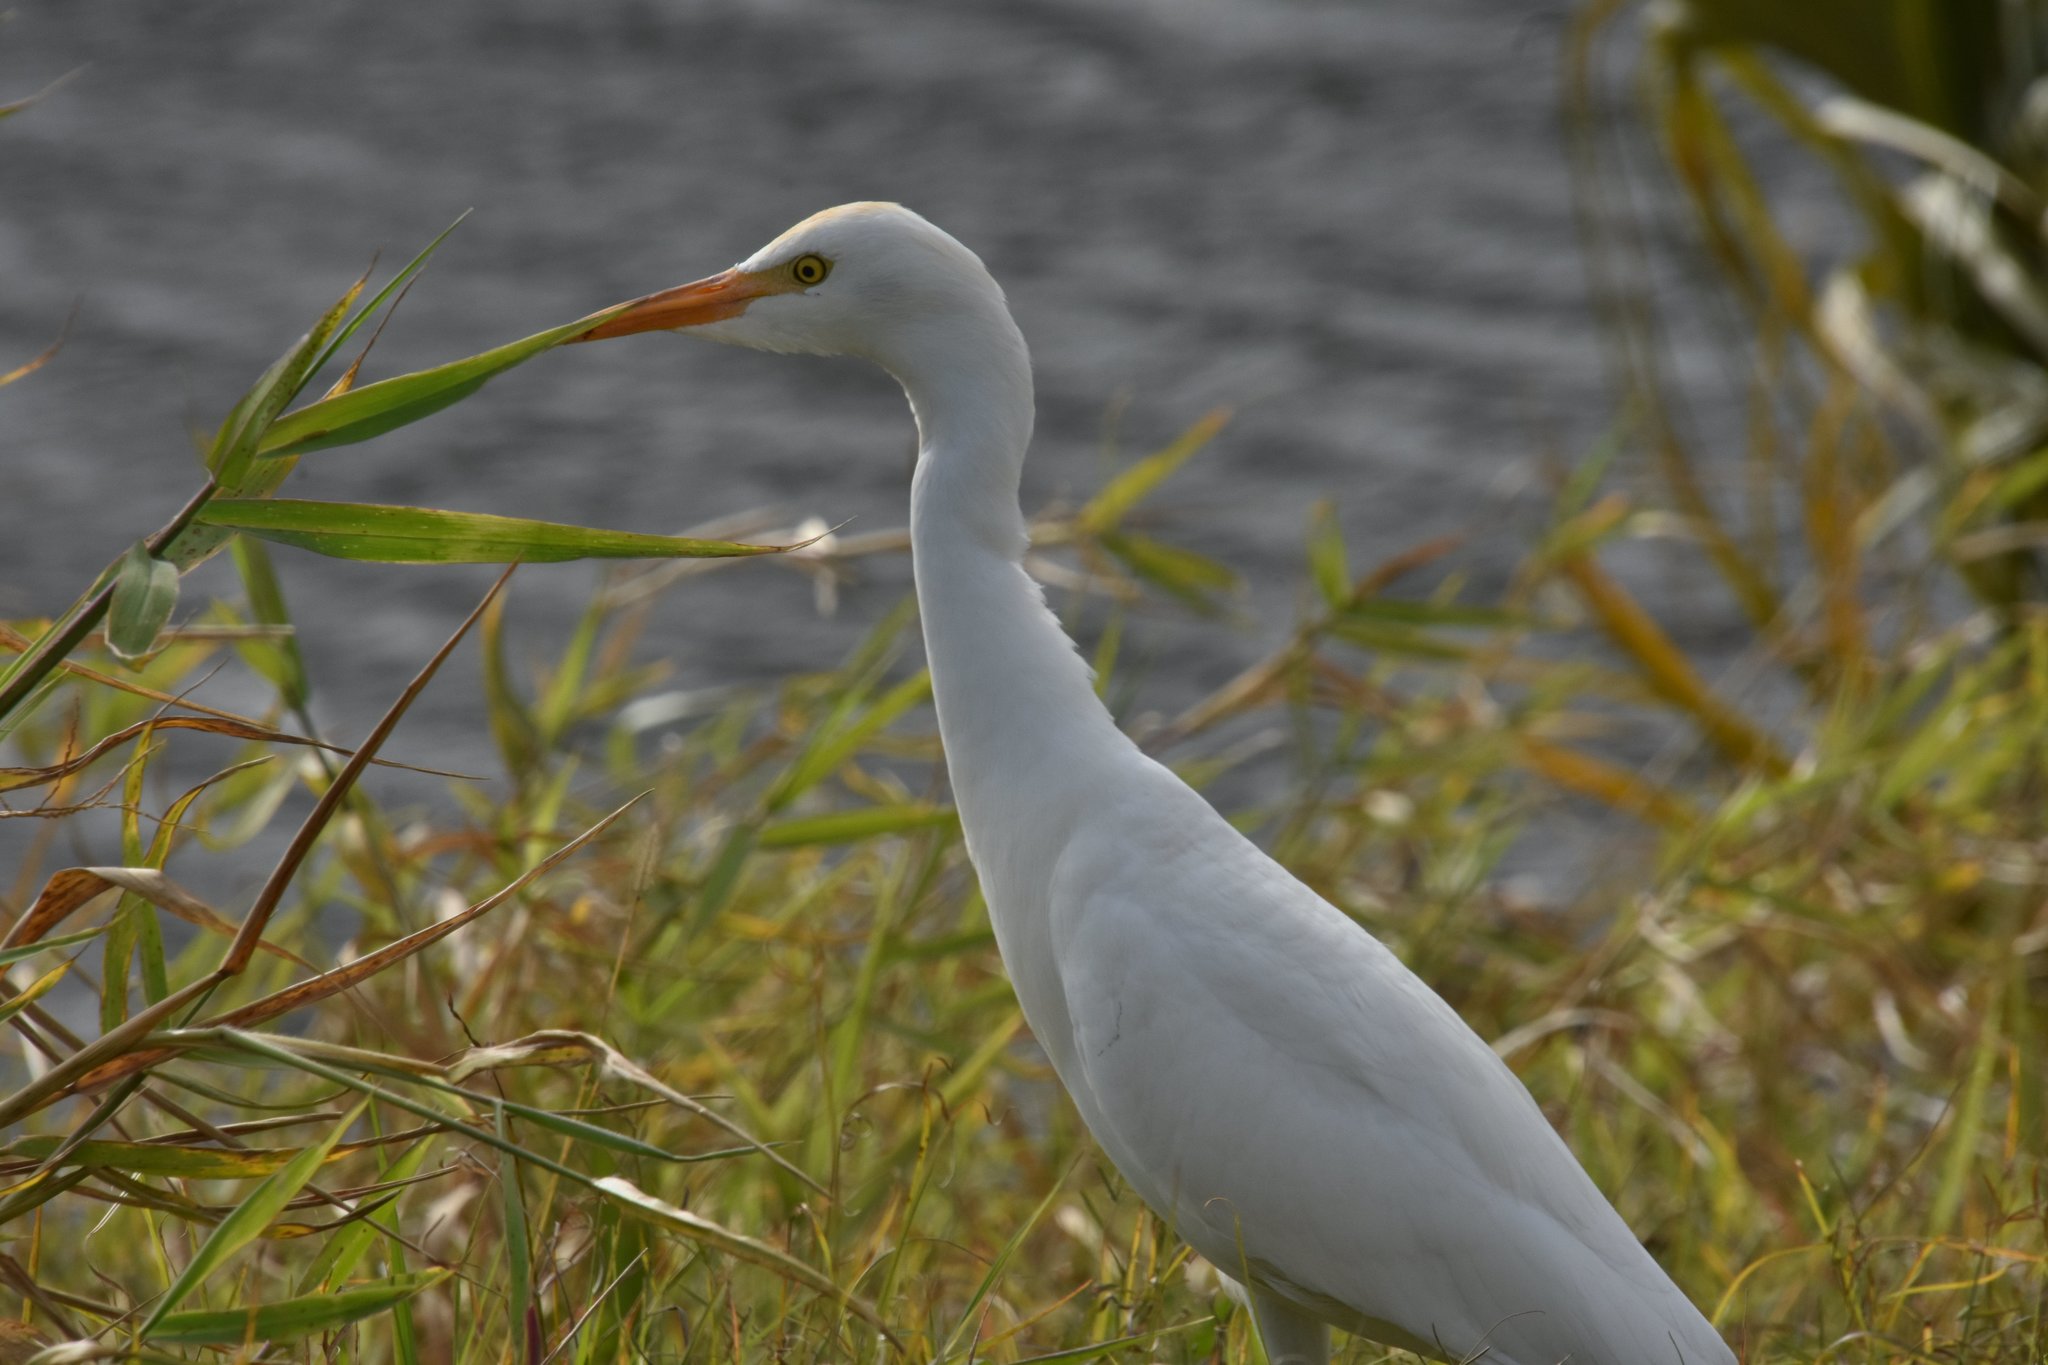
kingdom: Animalia
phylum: Chordata
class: Aves
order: Pelecaniformes
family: Ardeidae
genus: Bubulcus
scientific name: Bubulcus ibis
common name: Cattle egret
